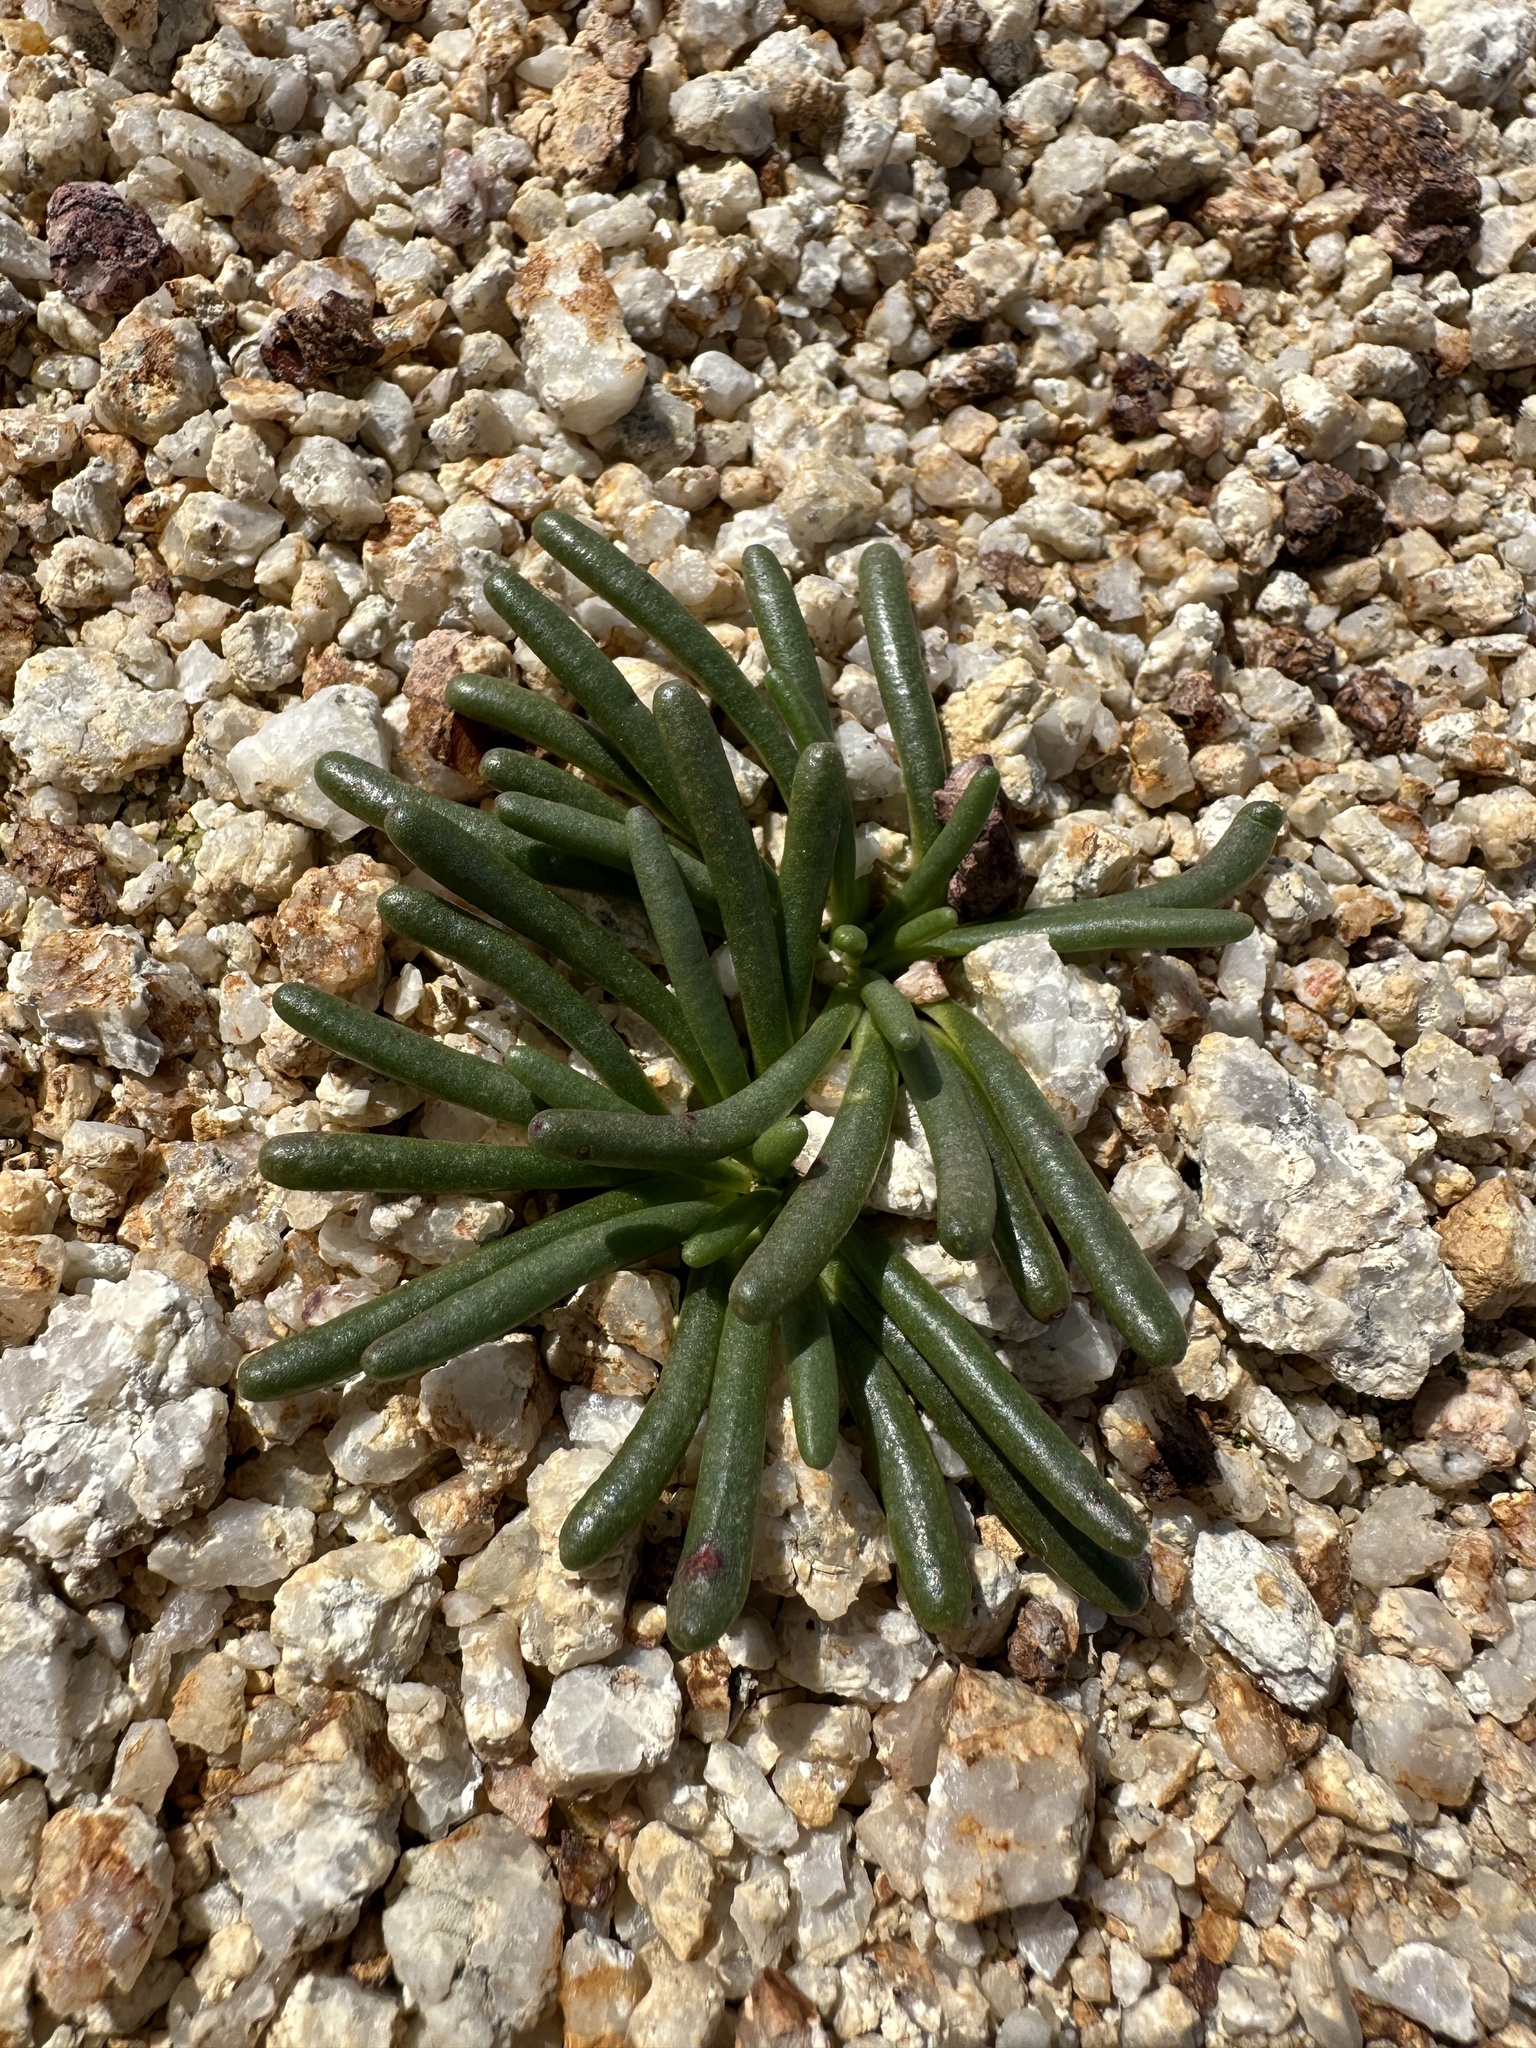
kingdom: Plantae
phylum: Tracheophyta
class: Magnoliopsida
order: Caryophyllales
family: Montiaceae
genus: Lewisia
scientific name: Lewisia rediviva
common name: Bitter-root
